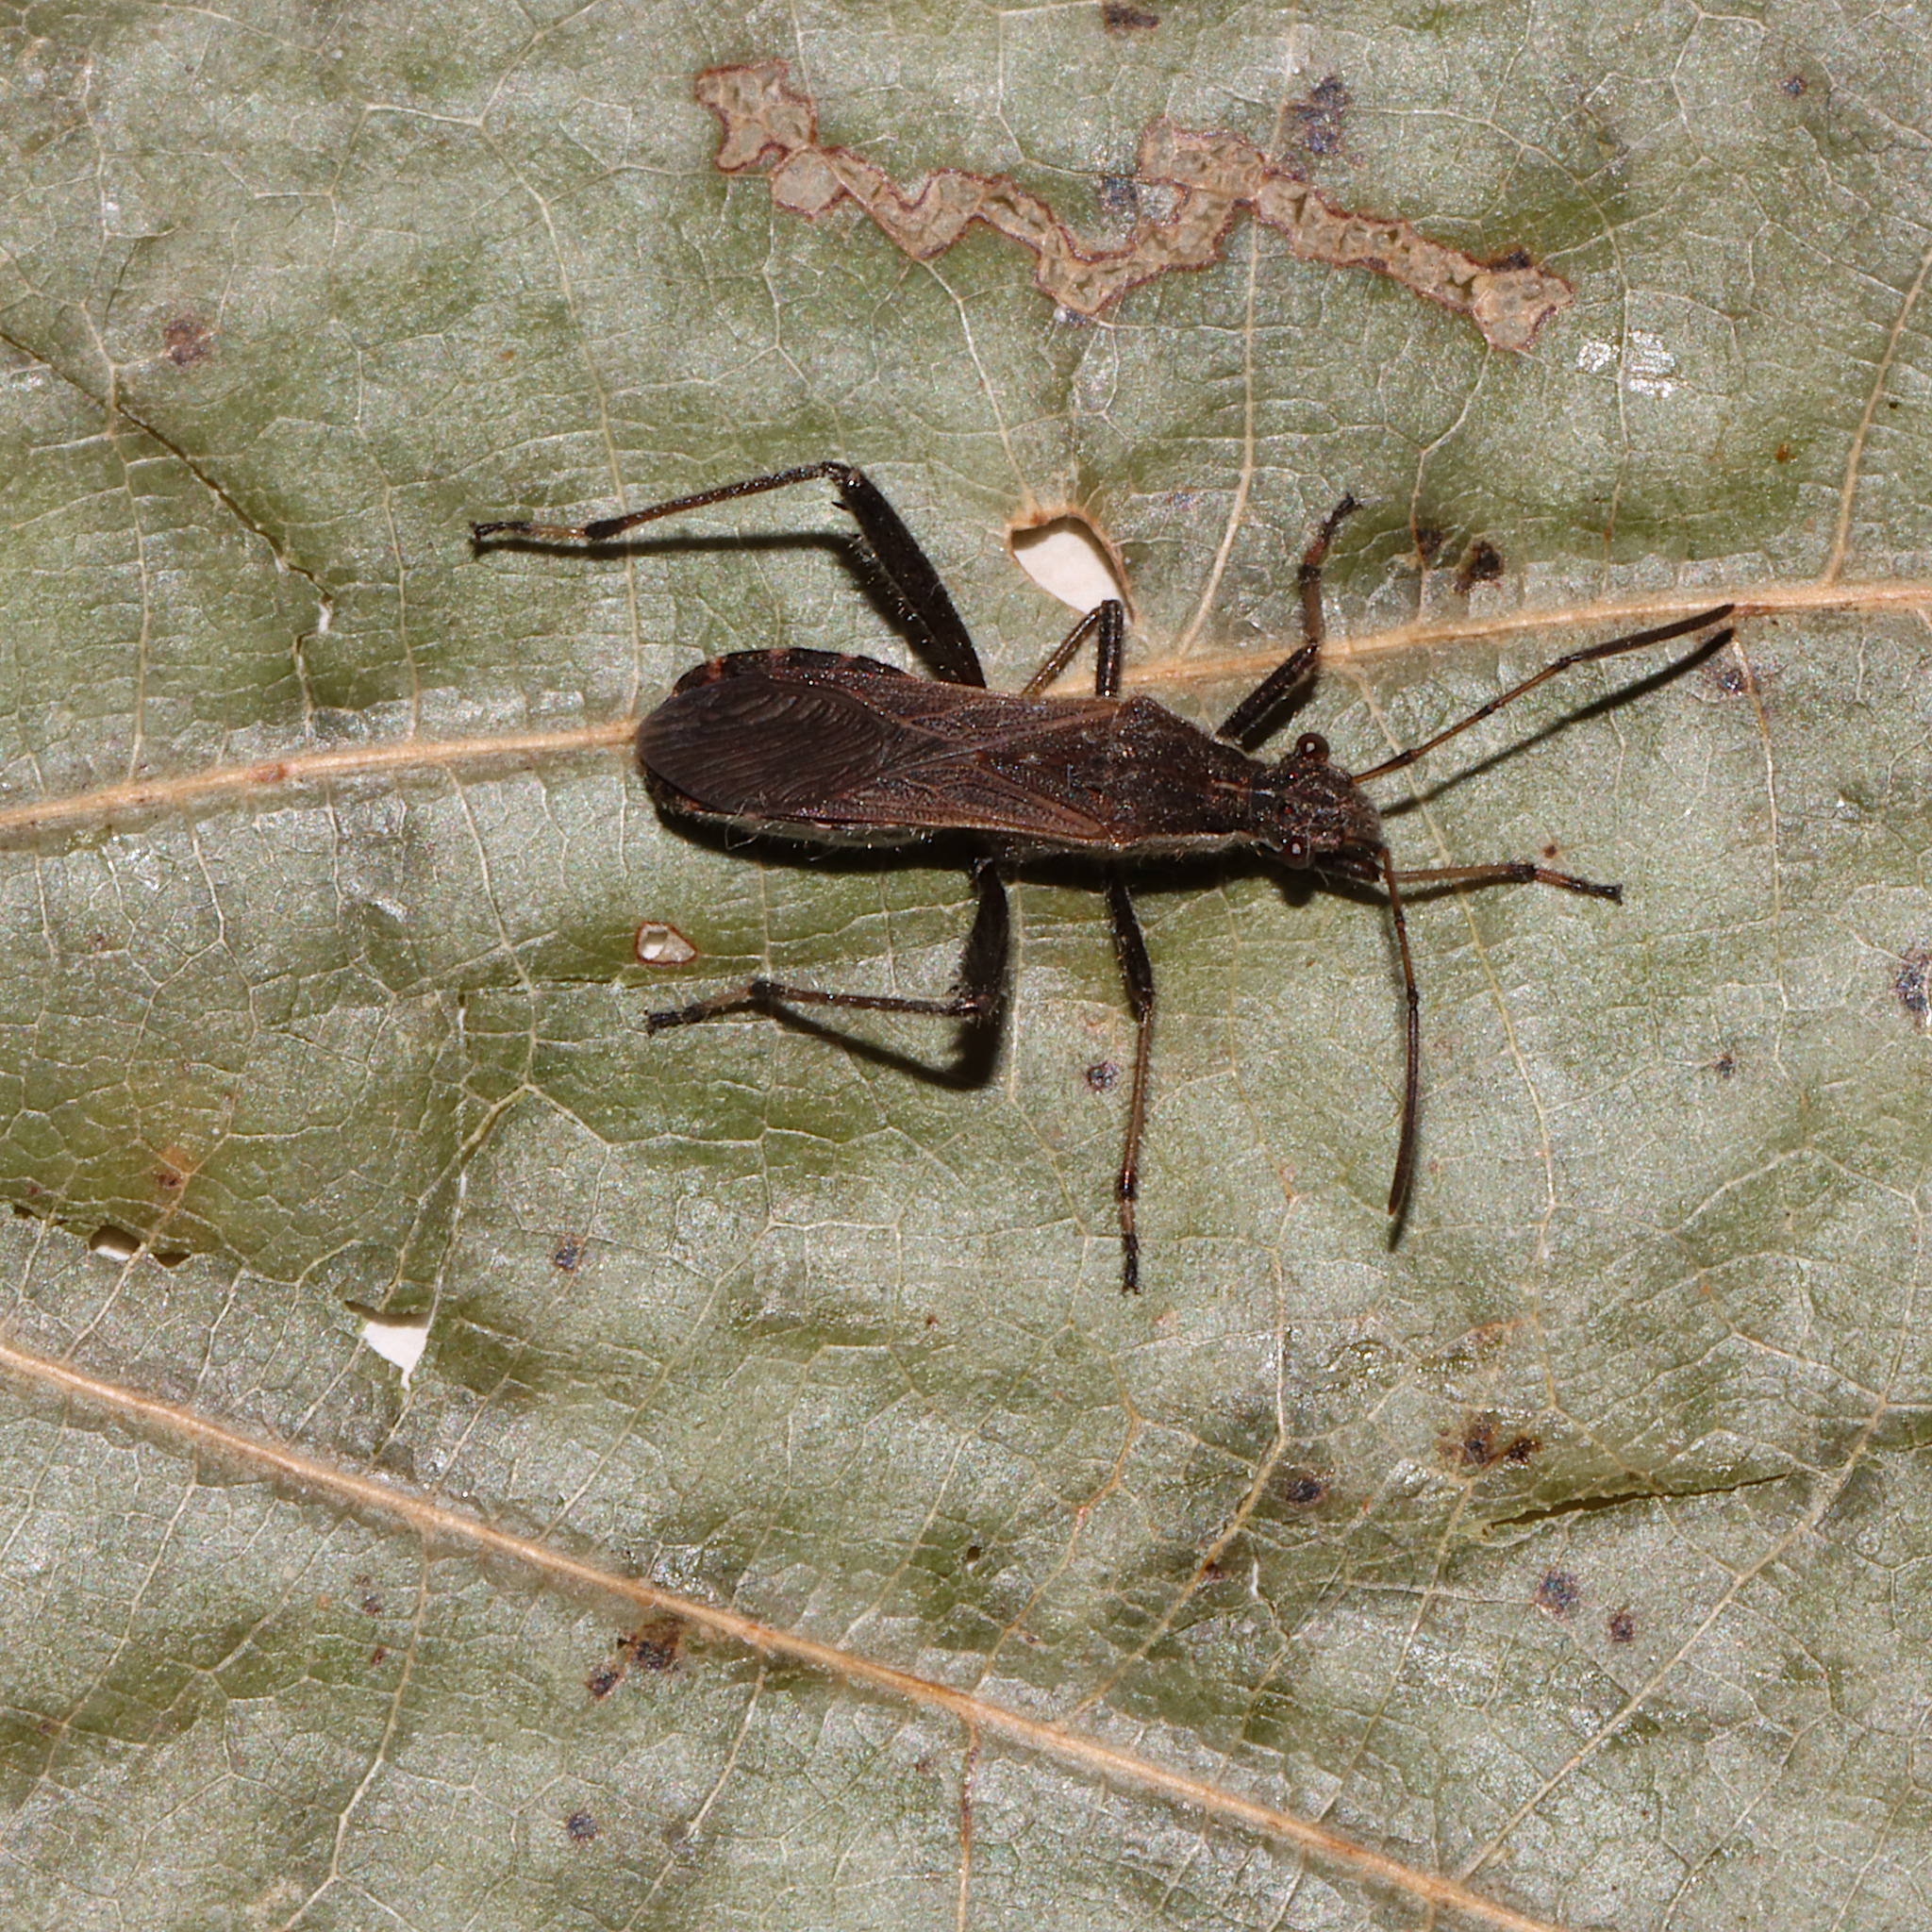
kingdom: Animalia
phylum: Arthropoda
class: Insecta
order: Hemiptera
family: Alydidae
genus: Alydus
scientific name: Alydus pilosulus
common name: Broad-headed bug
